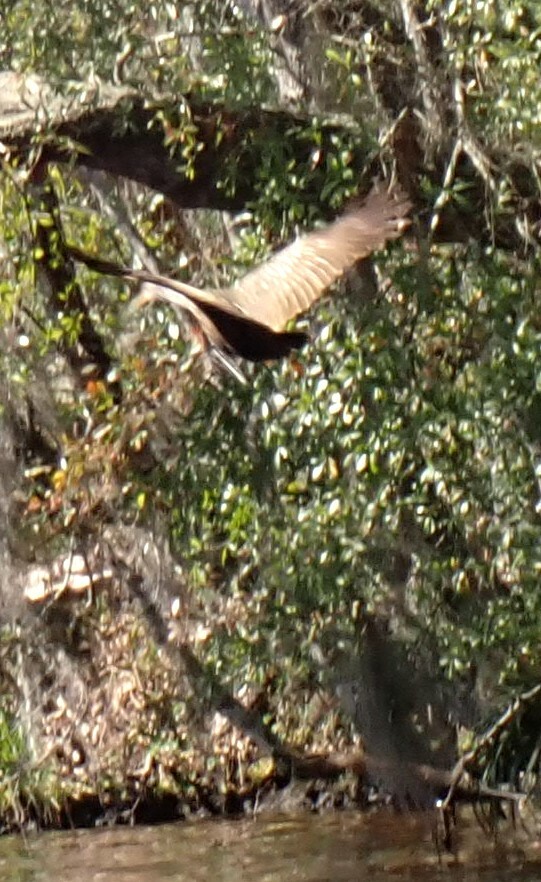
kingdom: Animalia
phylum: Chordata
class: Aves
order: Gruiformes
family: Aramidae
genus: Aramus
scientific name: Aramus guarauna
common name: Limpkin
